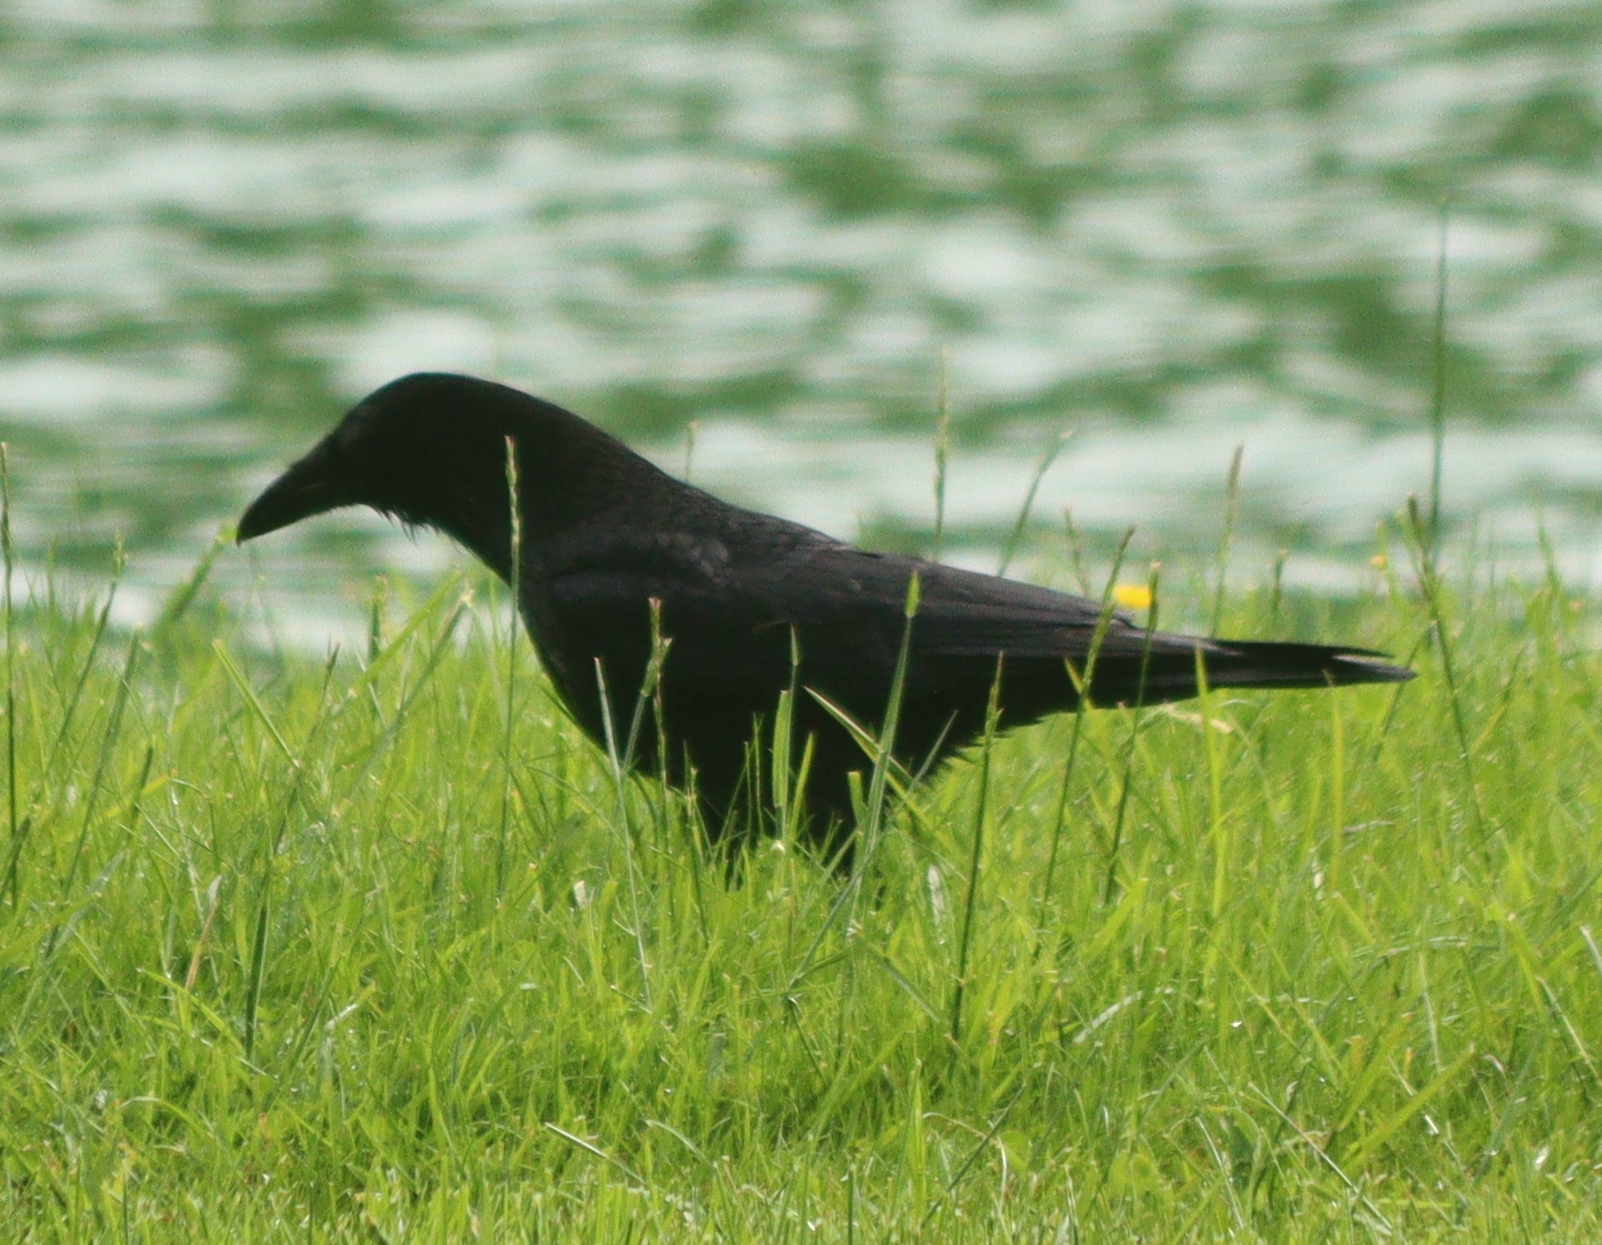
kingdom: Animalia
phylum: Chordata
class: Aves
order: Passeriformes
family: Corvidae
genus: Corvus
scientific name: Corvus corone
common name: Carrion crow
